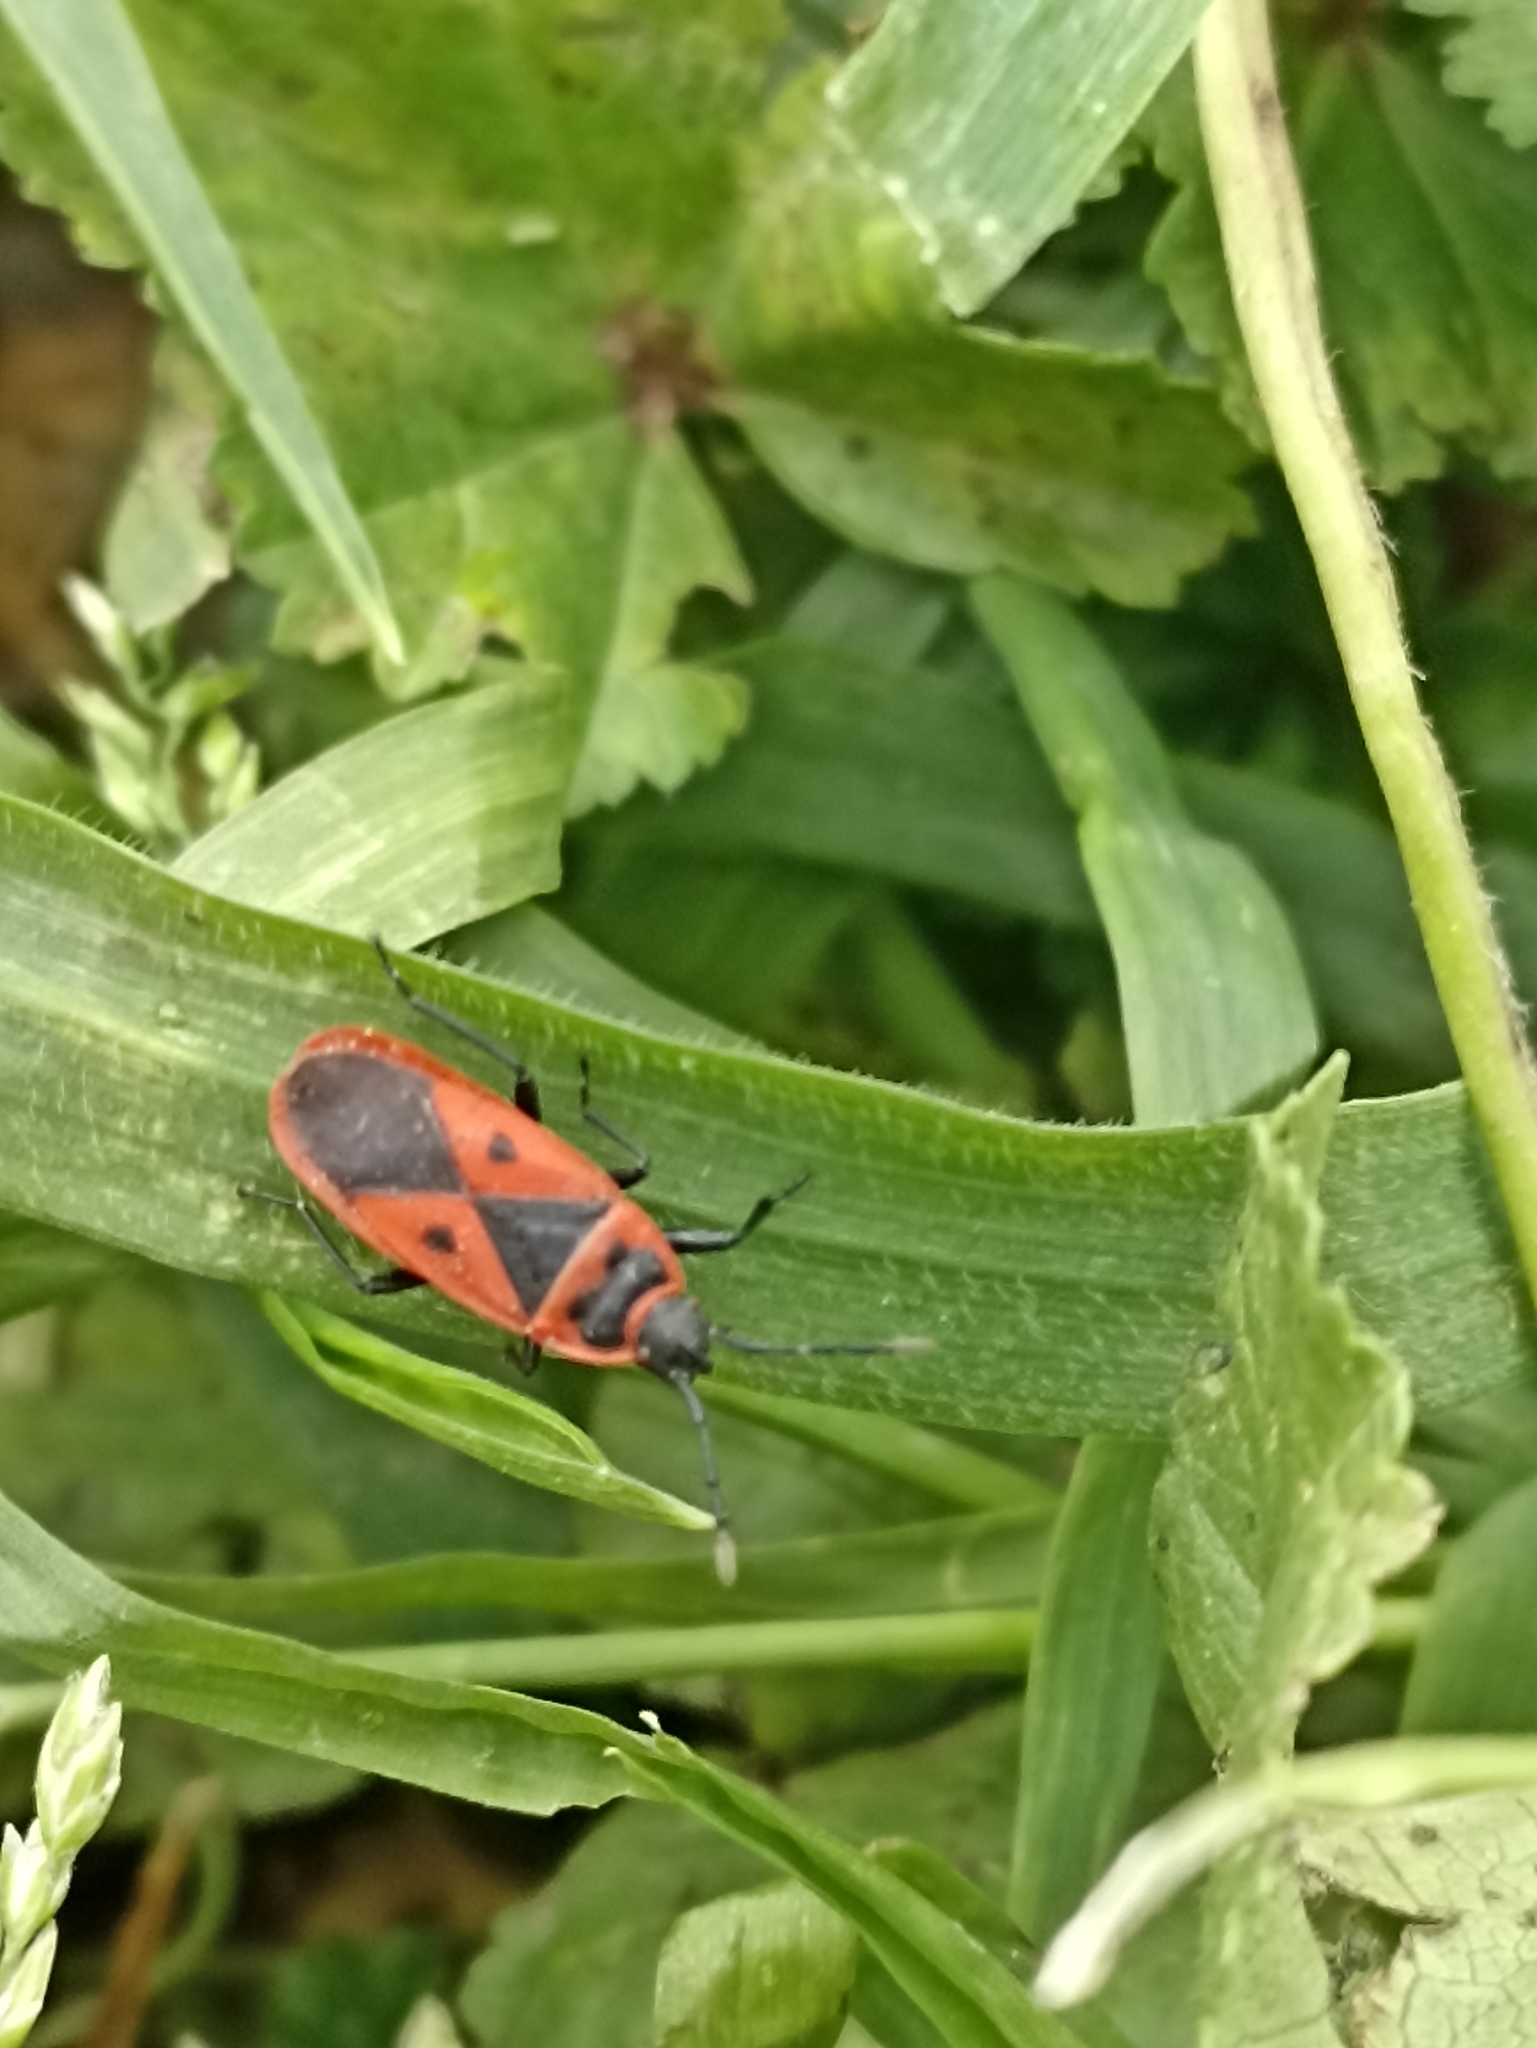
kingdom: Animalia
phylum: Arthropoda
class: Insecta
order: Hemiptera
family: Pyrrhocoridae
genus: Scantius
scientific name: Scantius aegyptius
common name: Red bug
